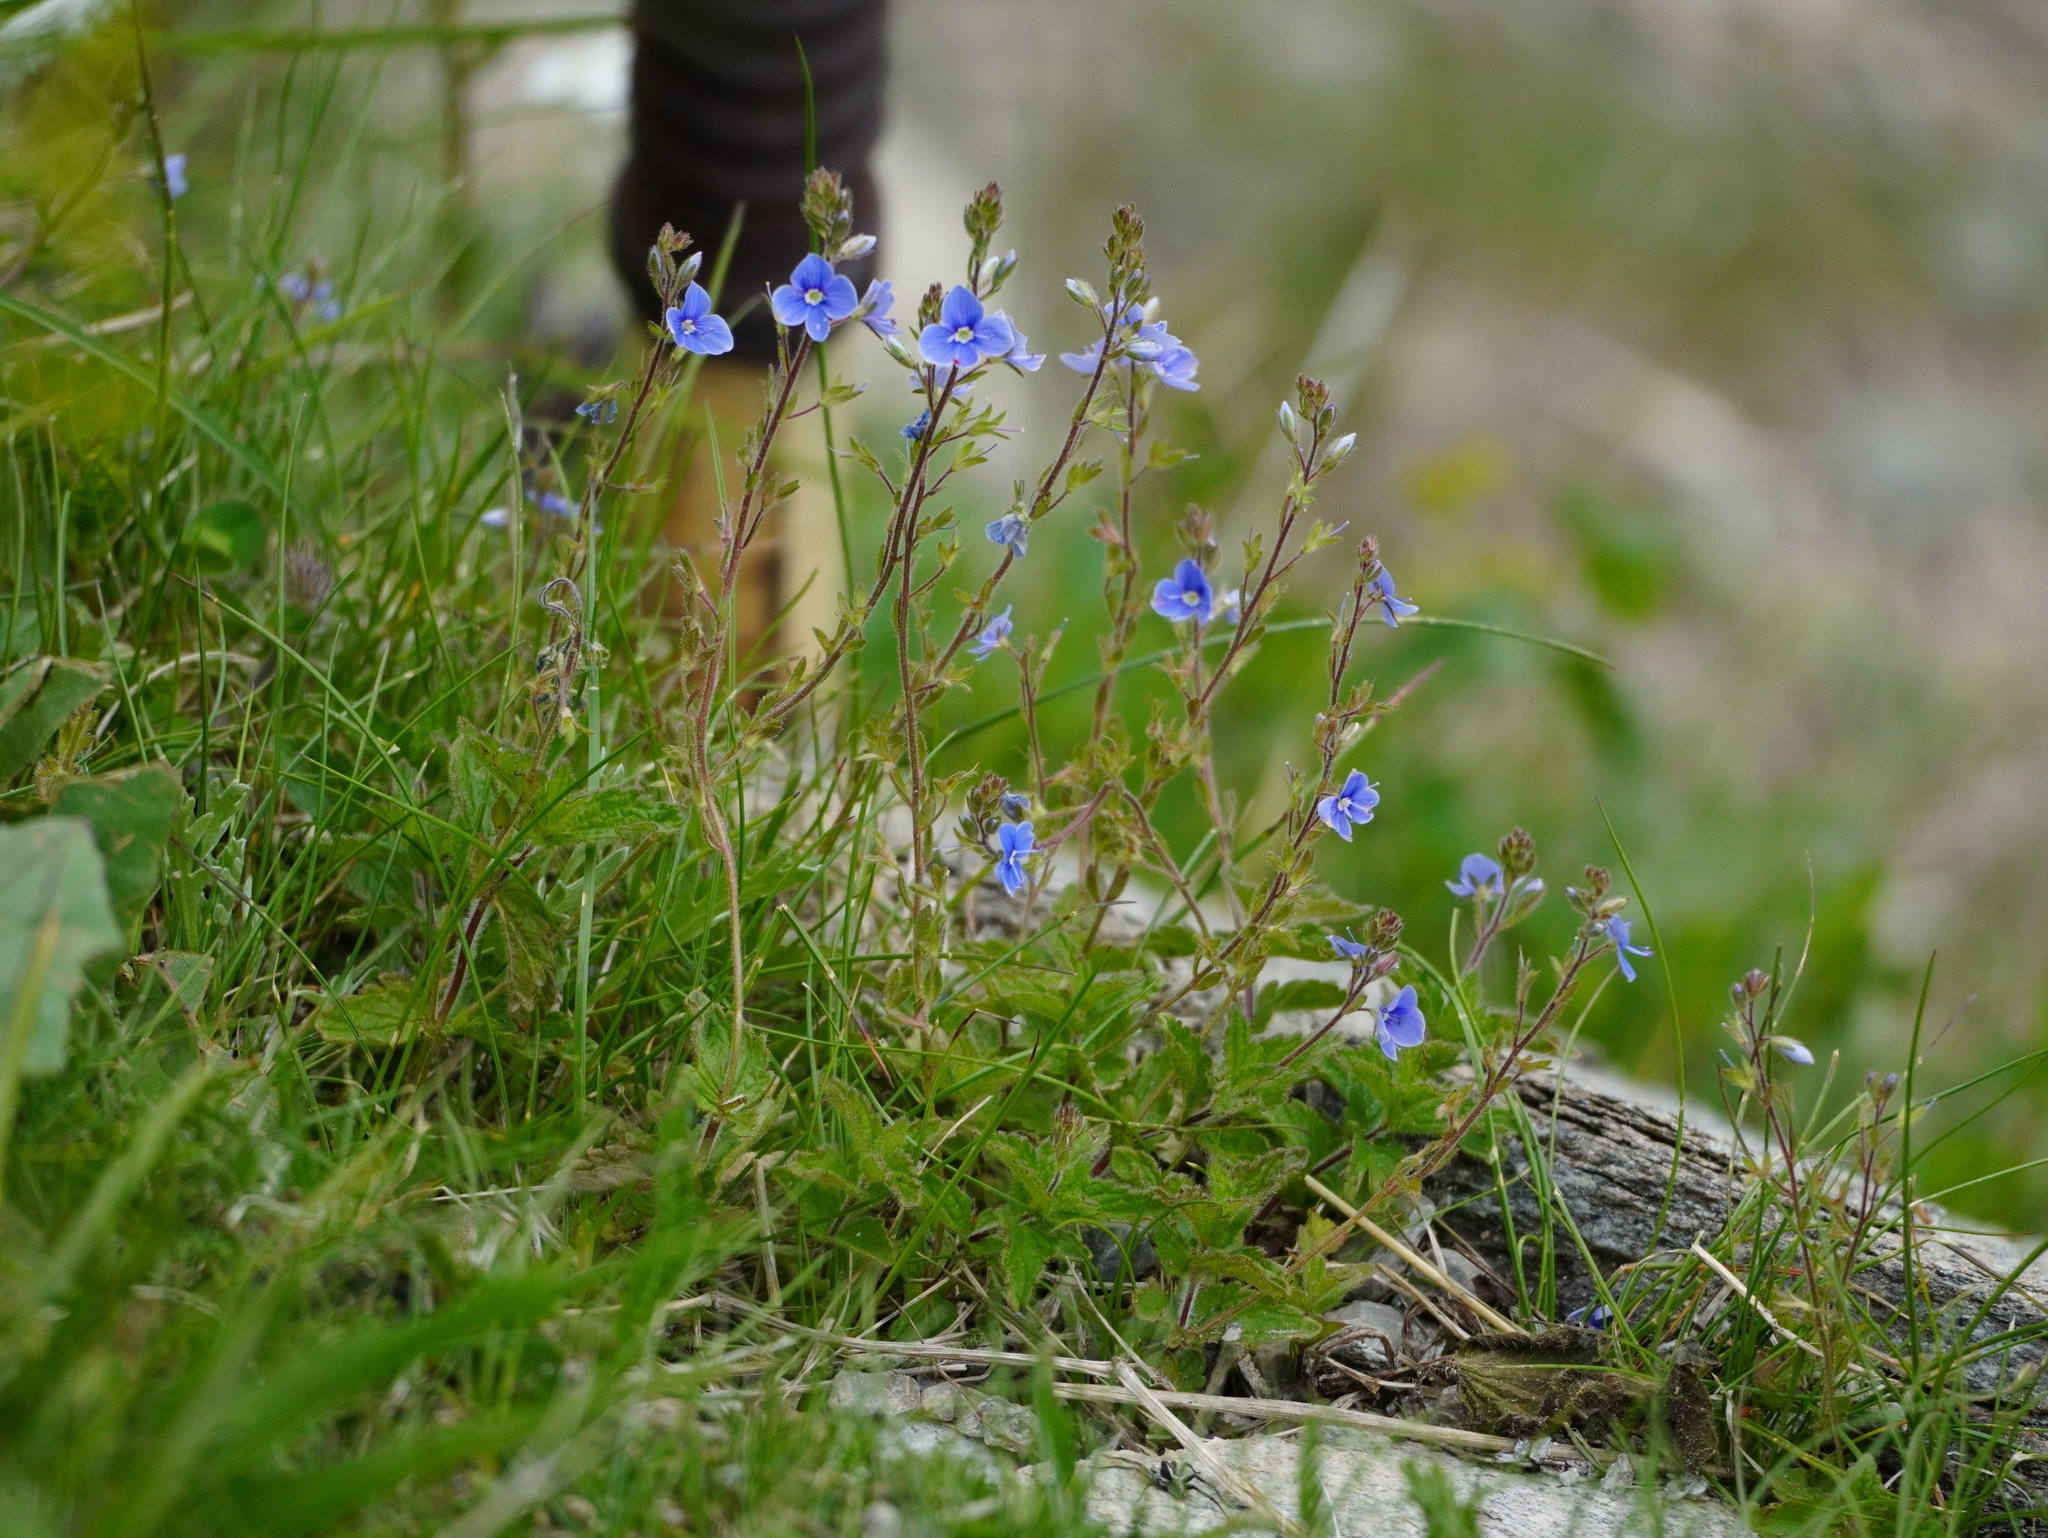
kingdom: Plantae
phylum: Tracheophyta
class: Magnoliopsida
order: Lamiales
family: Plantaginaceae
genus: Veronica
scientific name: Veronica chamaedrys
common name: Germander speedwell
